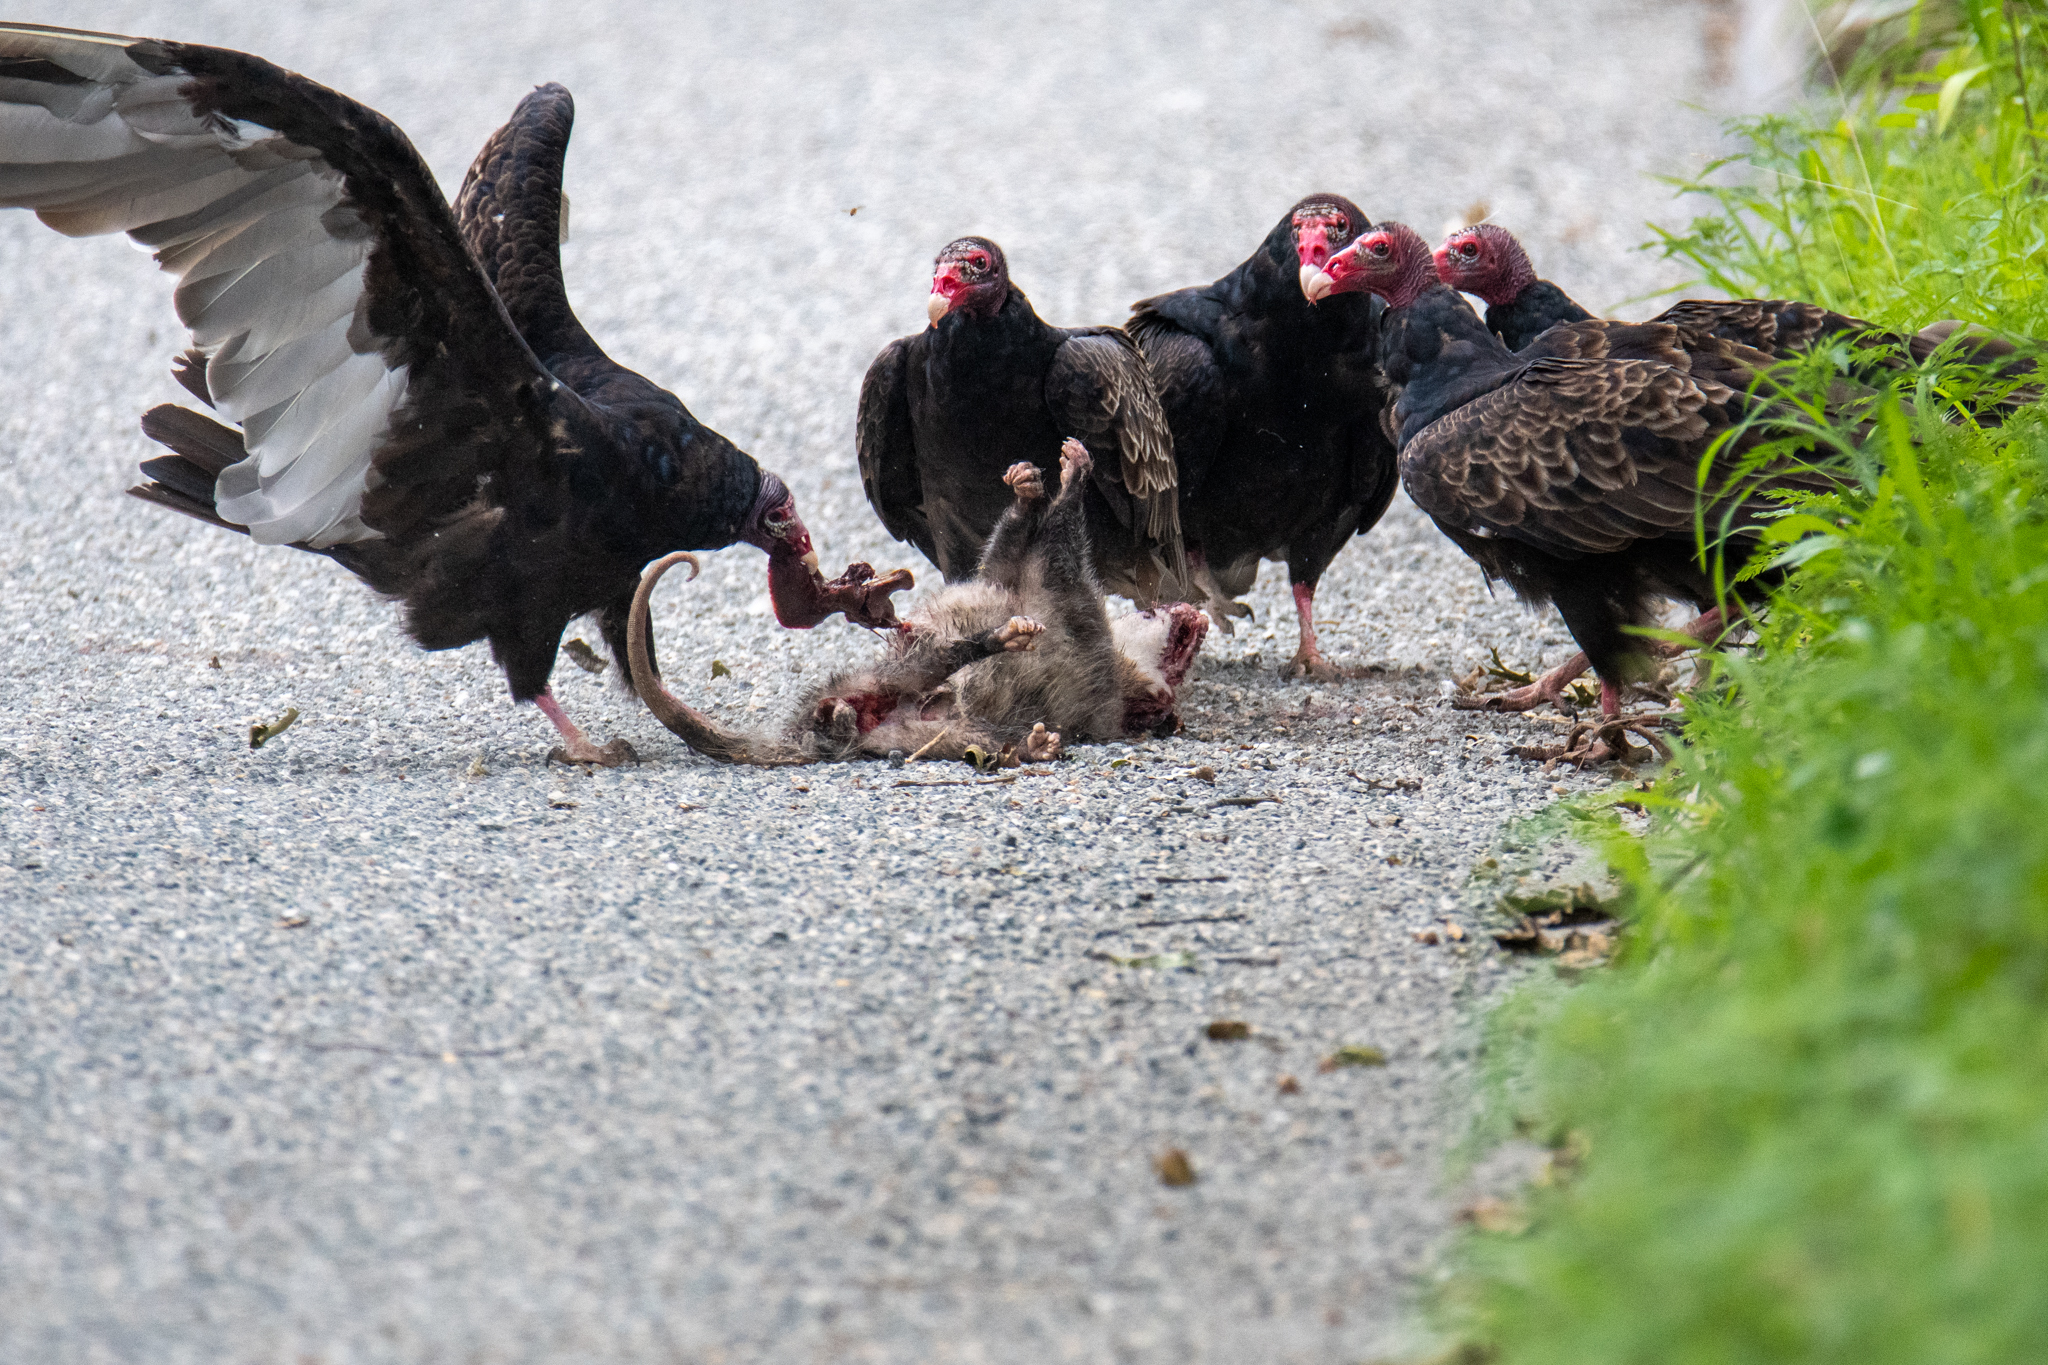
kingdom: Animalia
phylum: Chordata
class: Mammalia
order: Didelphimorphia
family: Didelphidae
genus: Didelphis
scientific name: Didelphis virginiana
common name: Virginia opossum
